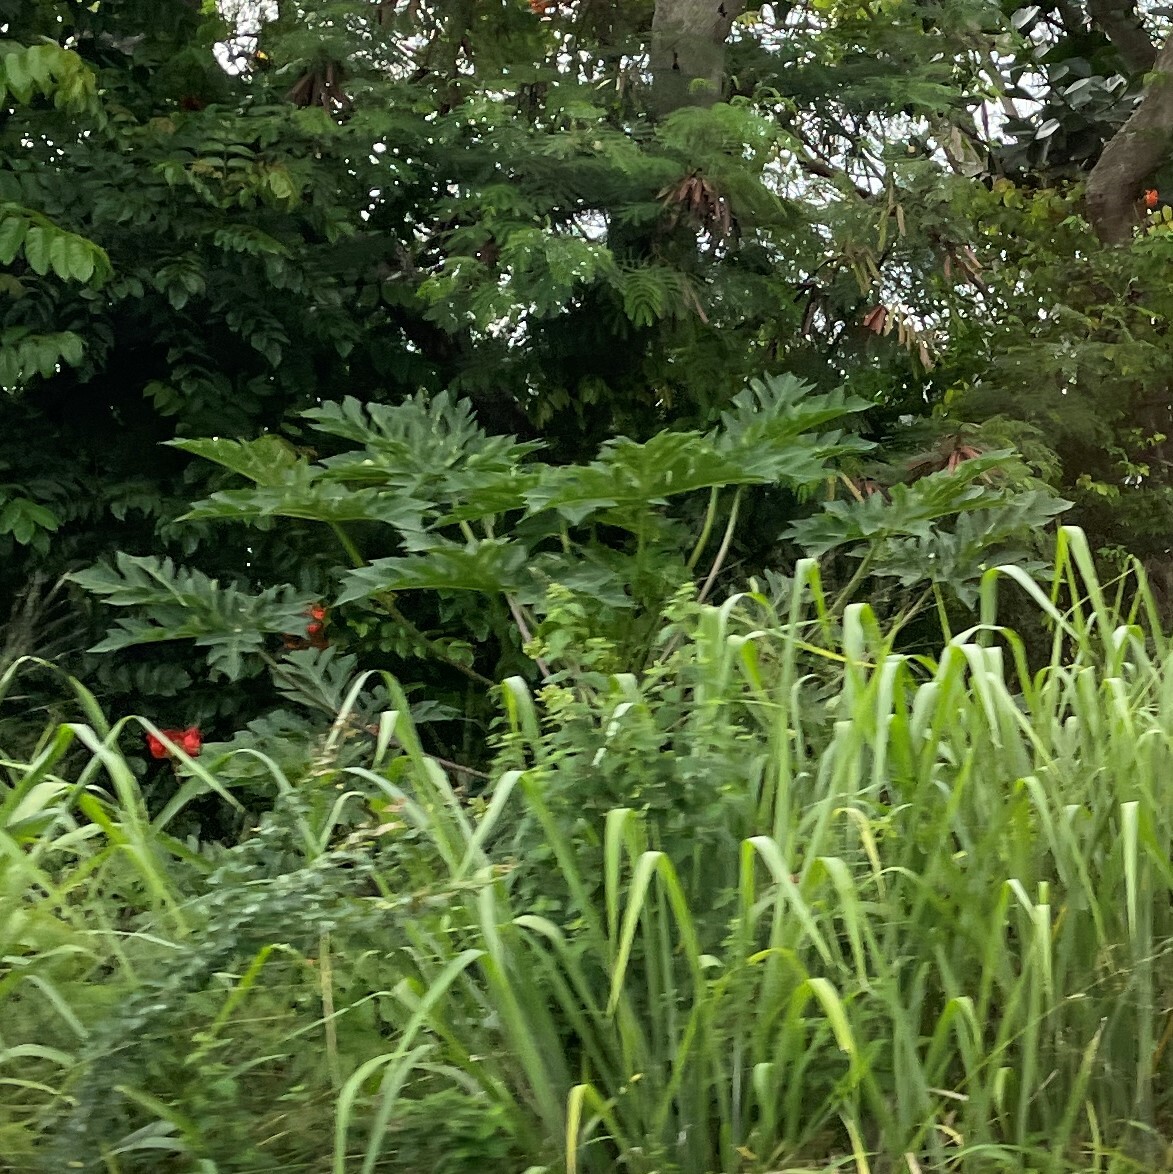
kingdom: Plantae
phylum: Tracheophyta
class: Magnoliopsida
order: Brassicales
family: Caricaceae
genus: Carica
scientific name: Carica papaya
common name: Papaya
